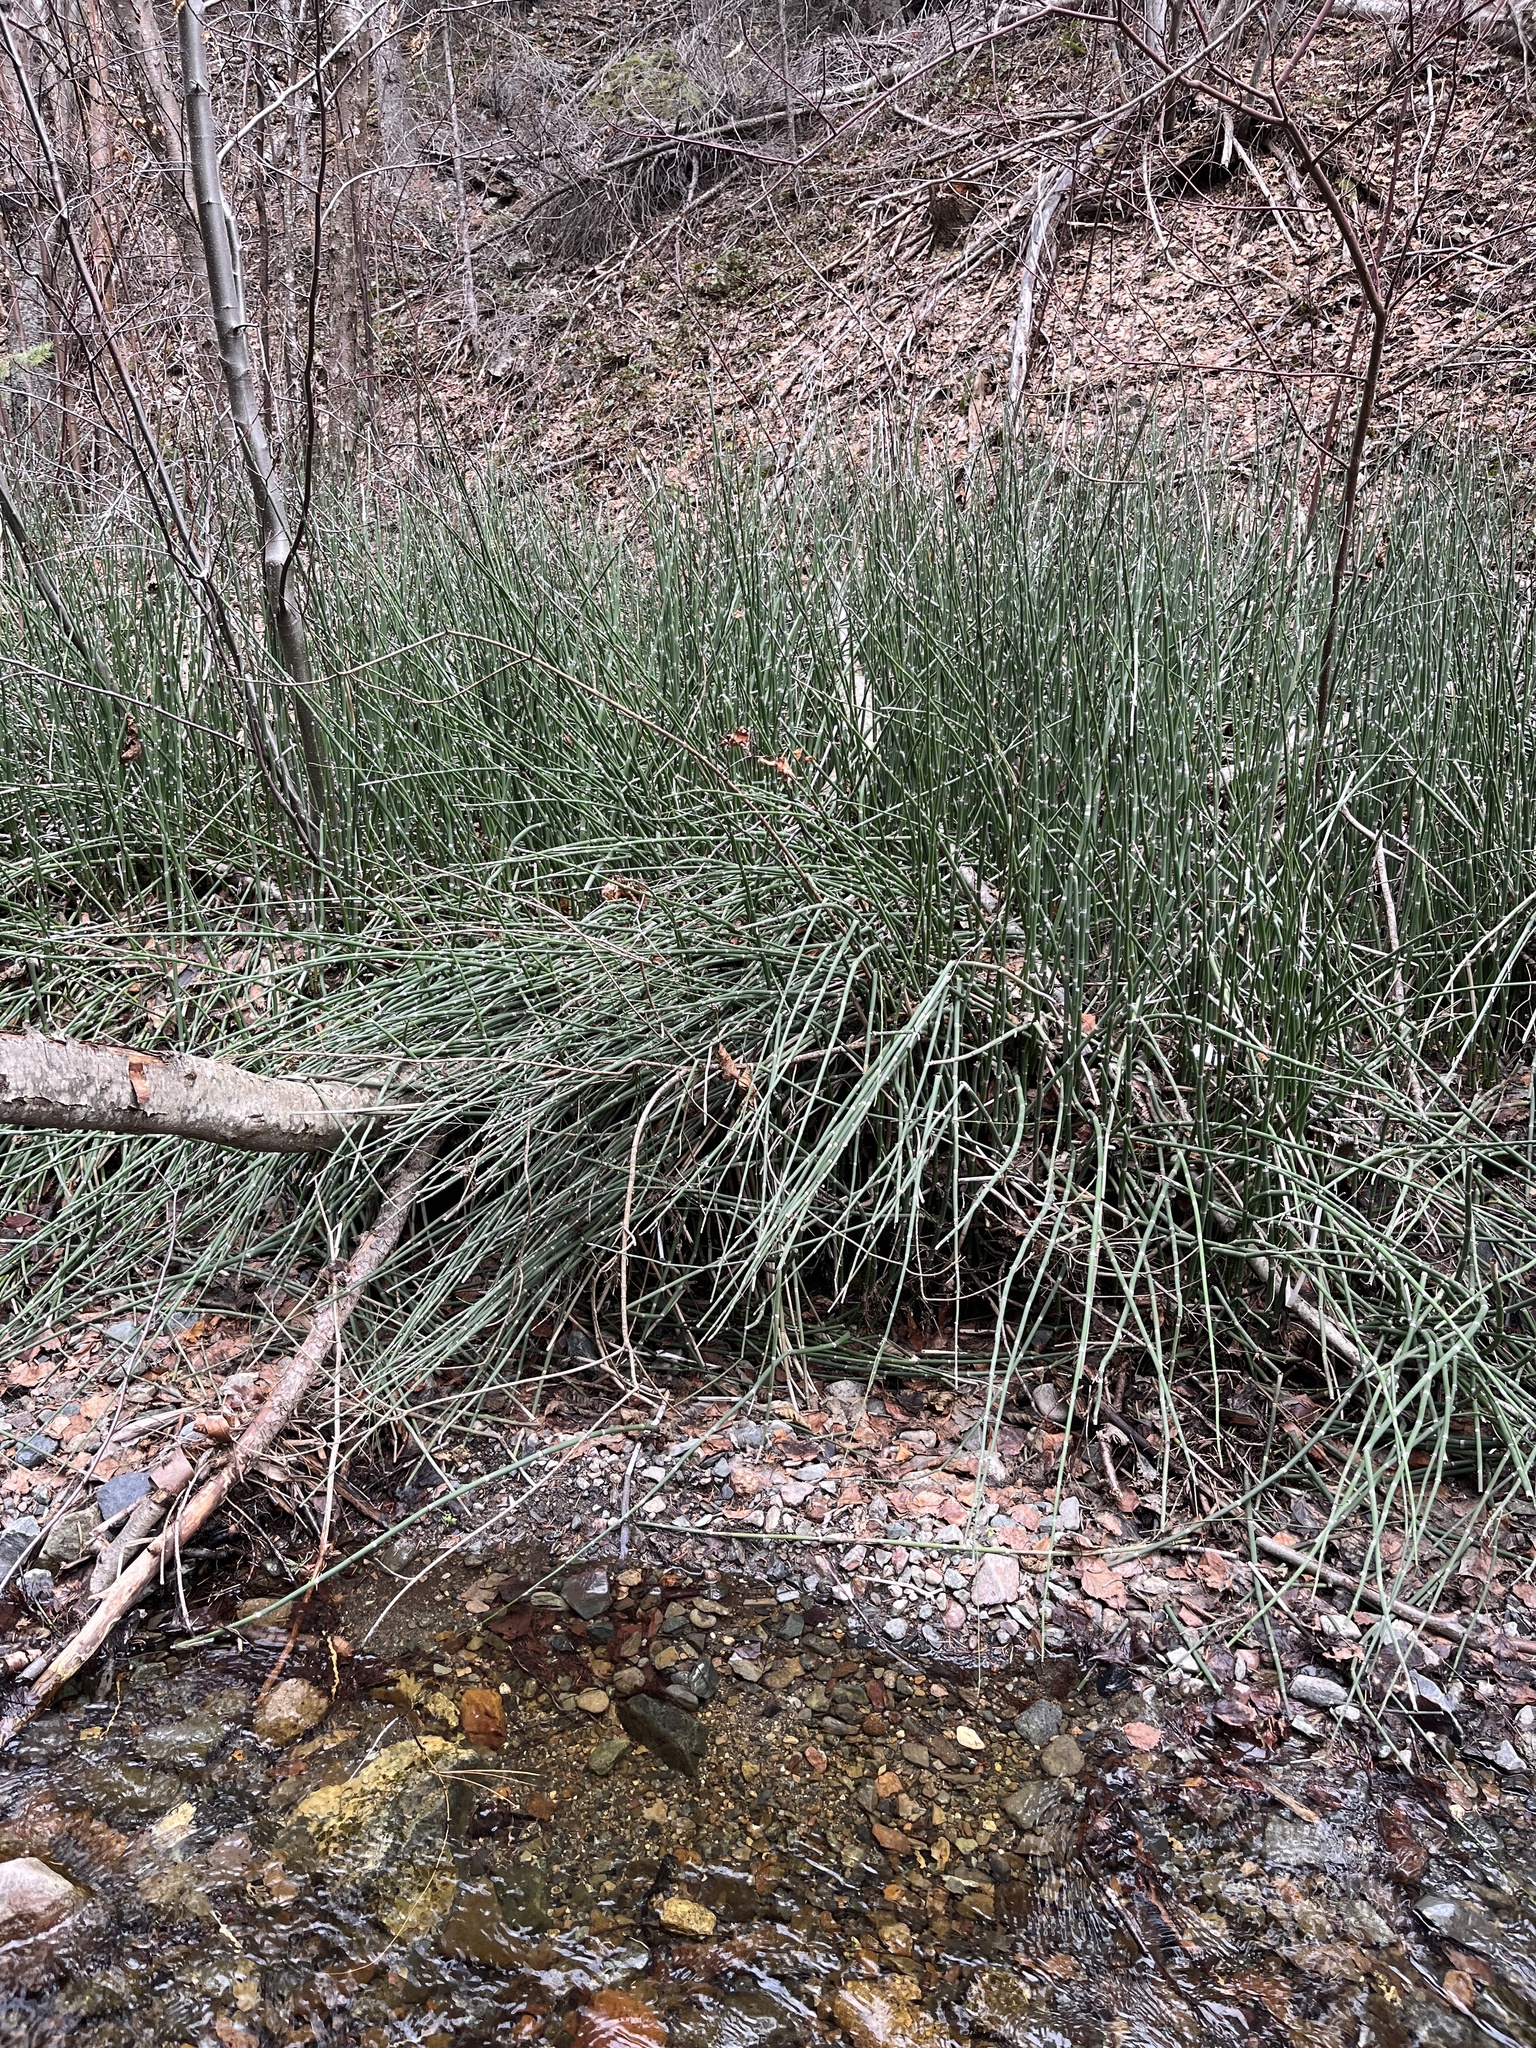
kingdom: Plantae
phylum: Tracheophyta
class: Polypodiopsida
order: Equisetales
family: Equisetaceae
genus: Equisetum
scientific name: Equisetum hyemale
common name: Rough horsetail
